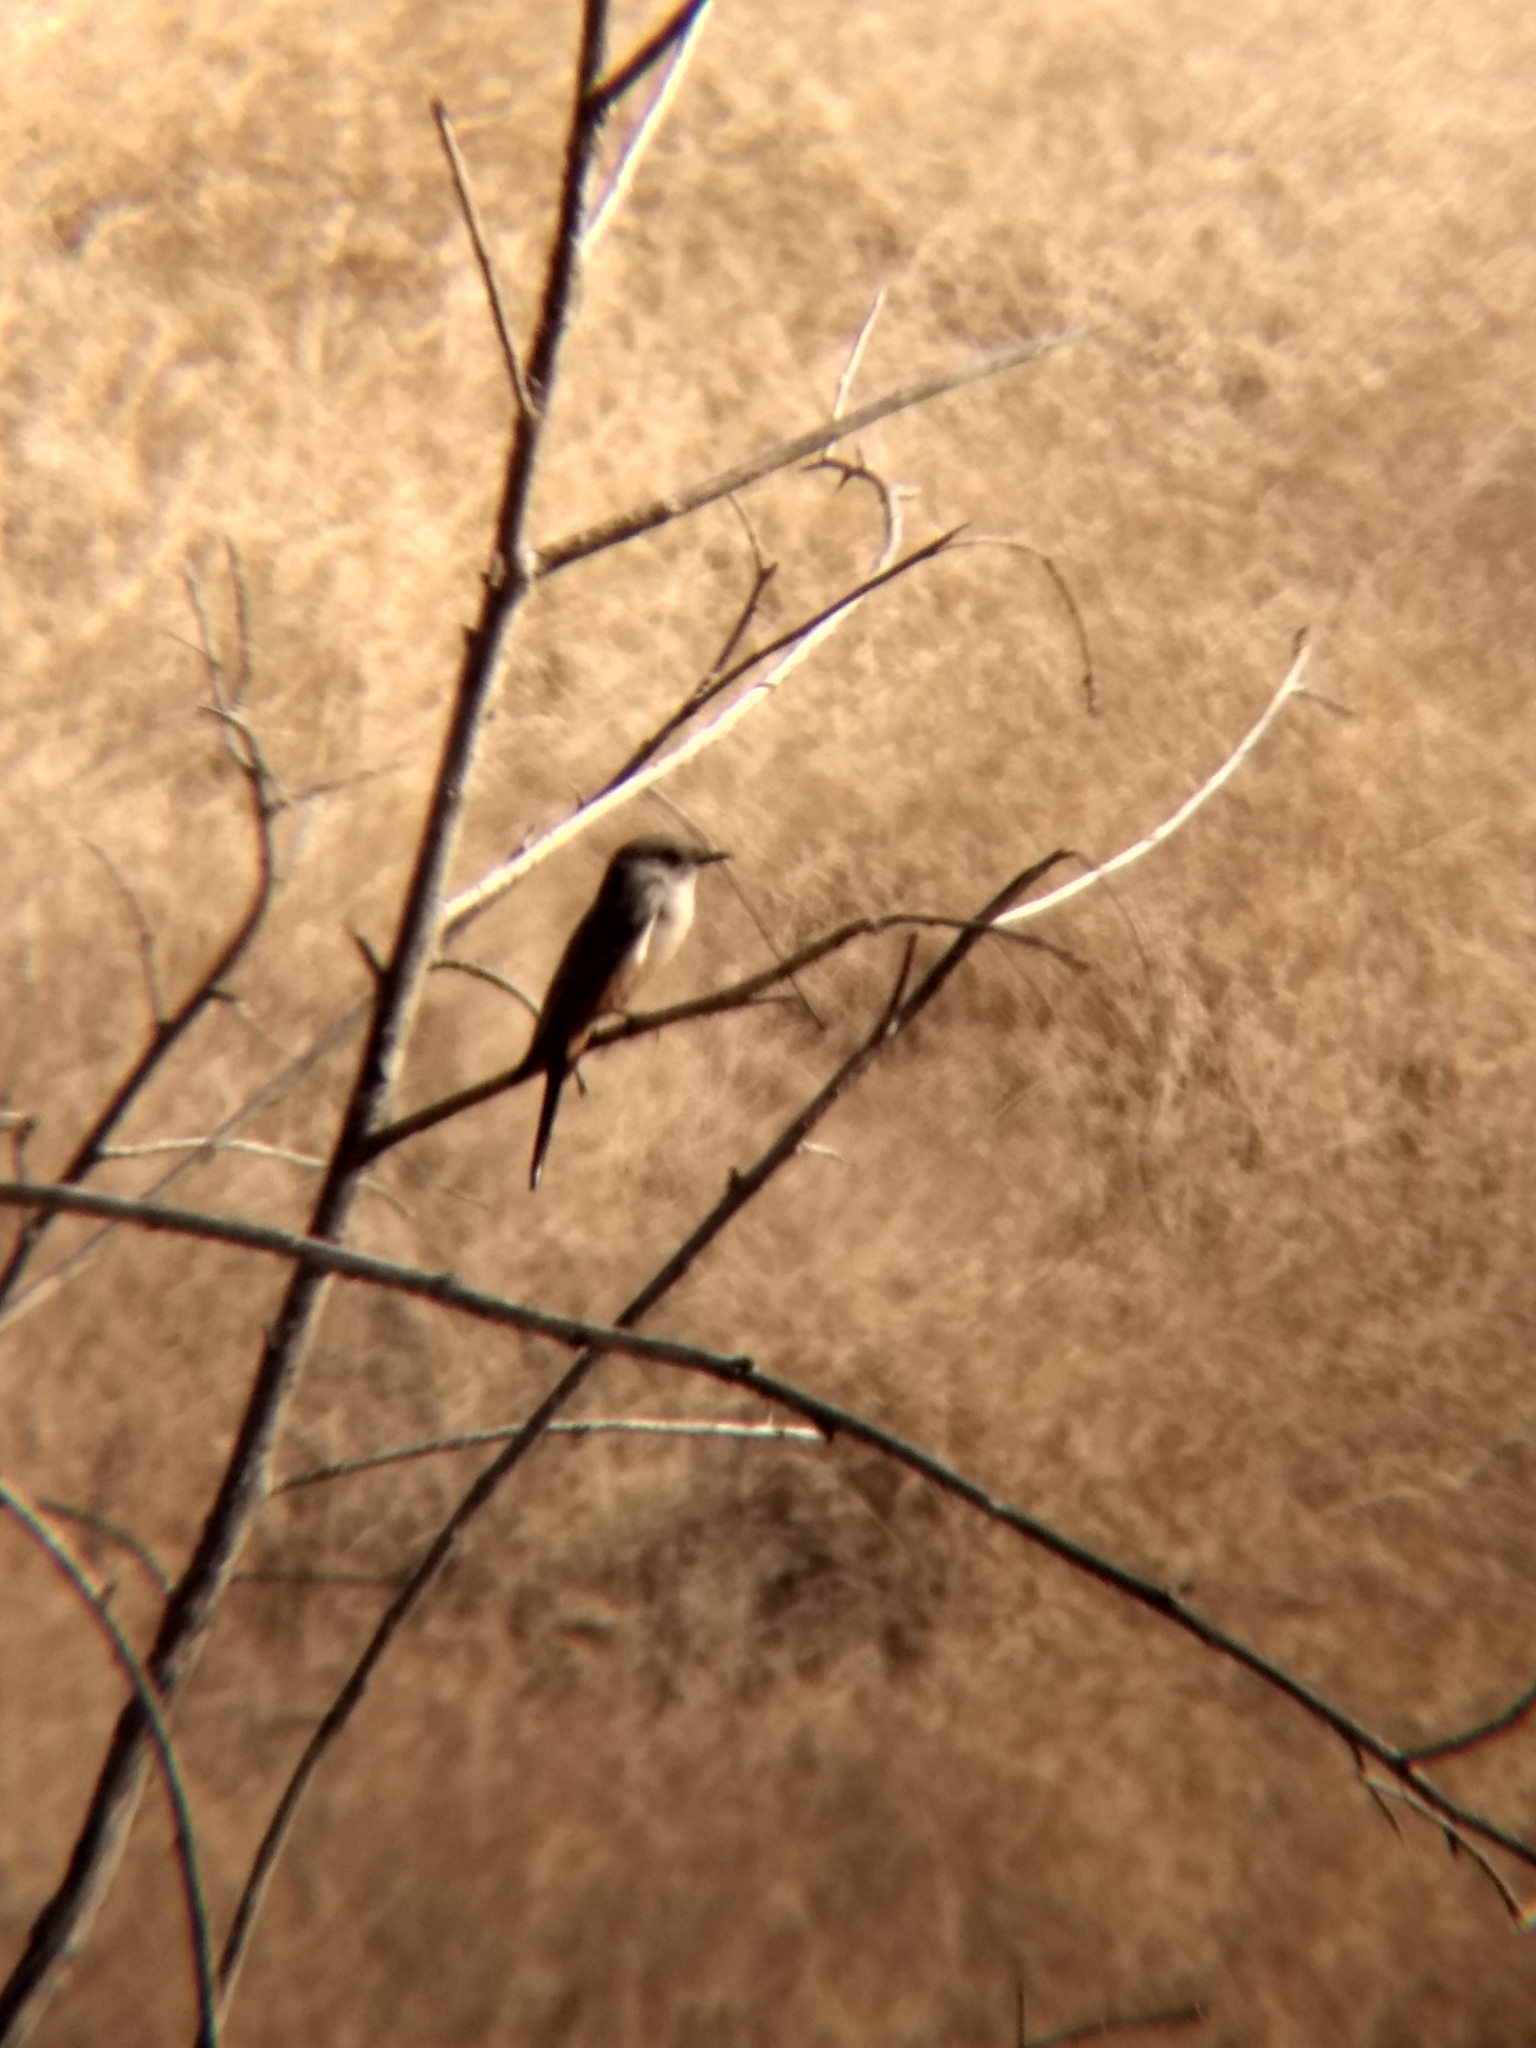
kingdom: Animalia
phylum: Chordata
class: Aves
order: Passeriformes
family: Tyrannidae
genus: Sayornis
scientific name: Sayornis saya
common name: Say's phoebe
